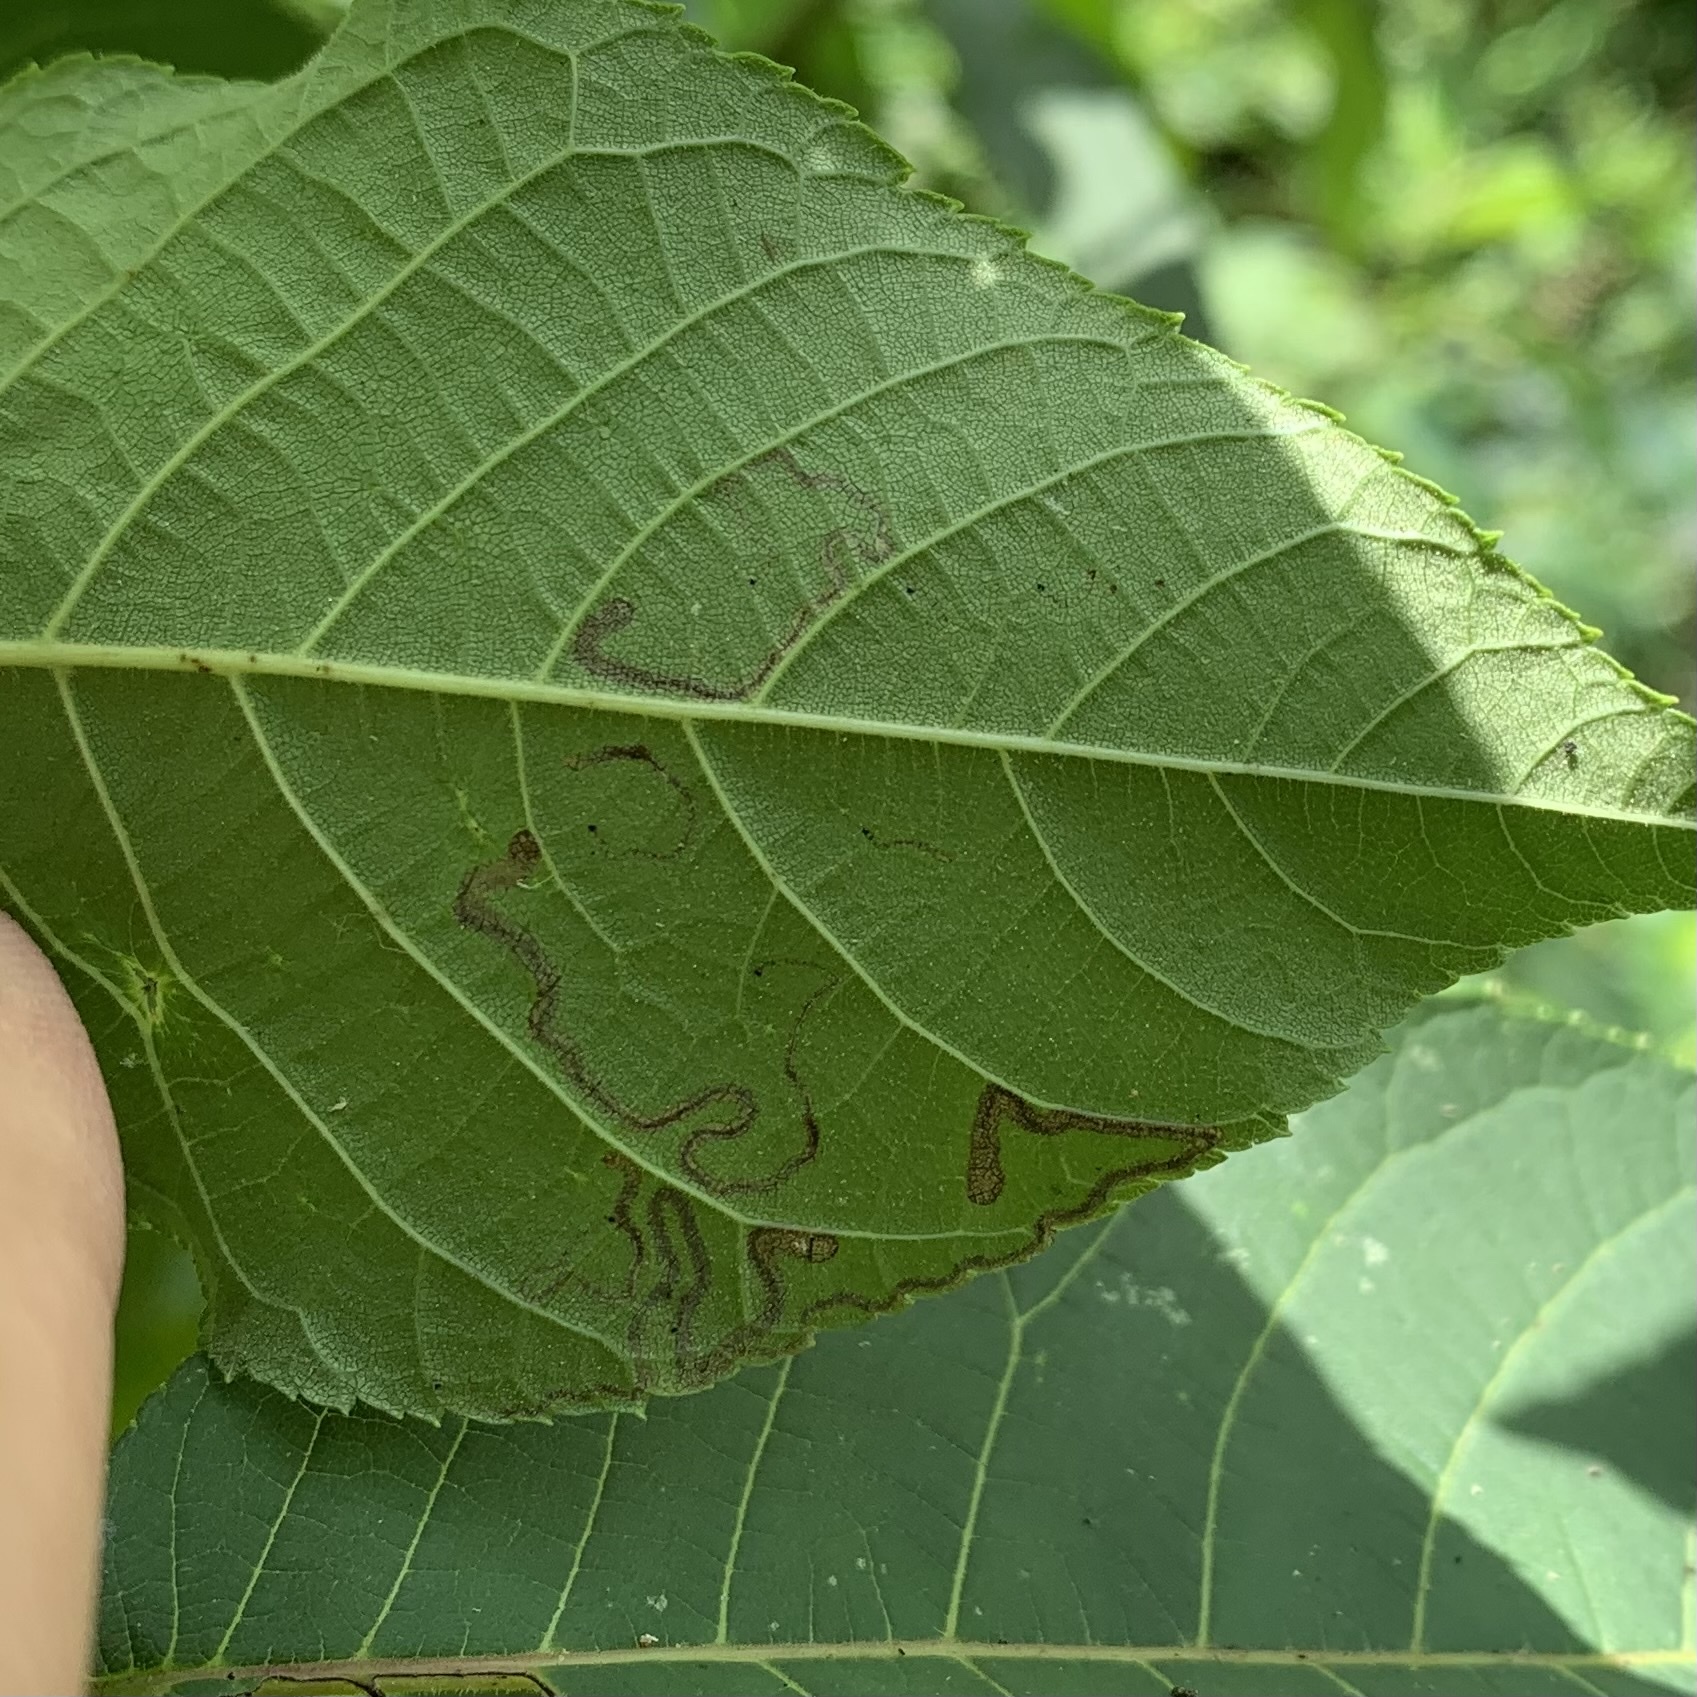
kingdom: Animalia
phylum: Arthropoda
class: Insecta
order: Lepidoptera
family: Nepticulidae
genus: Stigmella
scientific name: Stigmella intermedia
